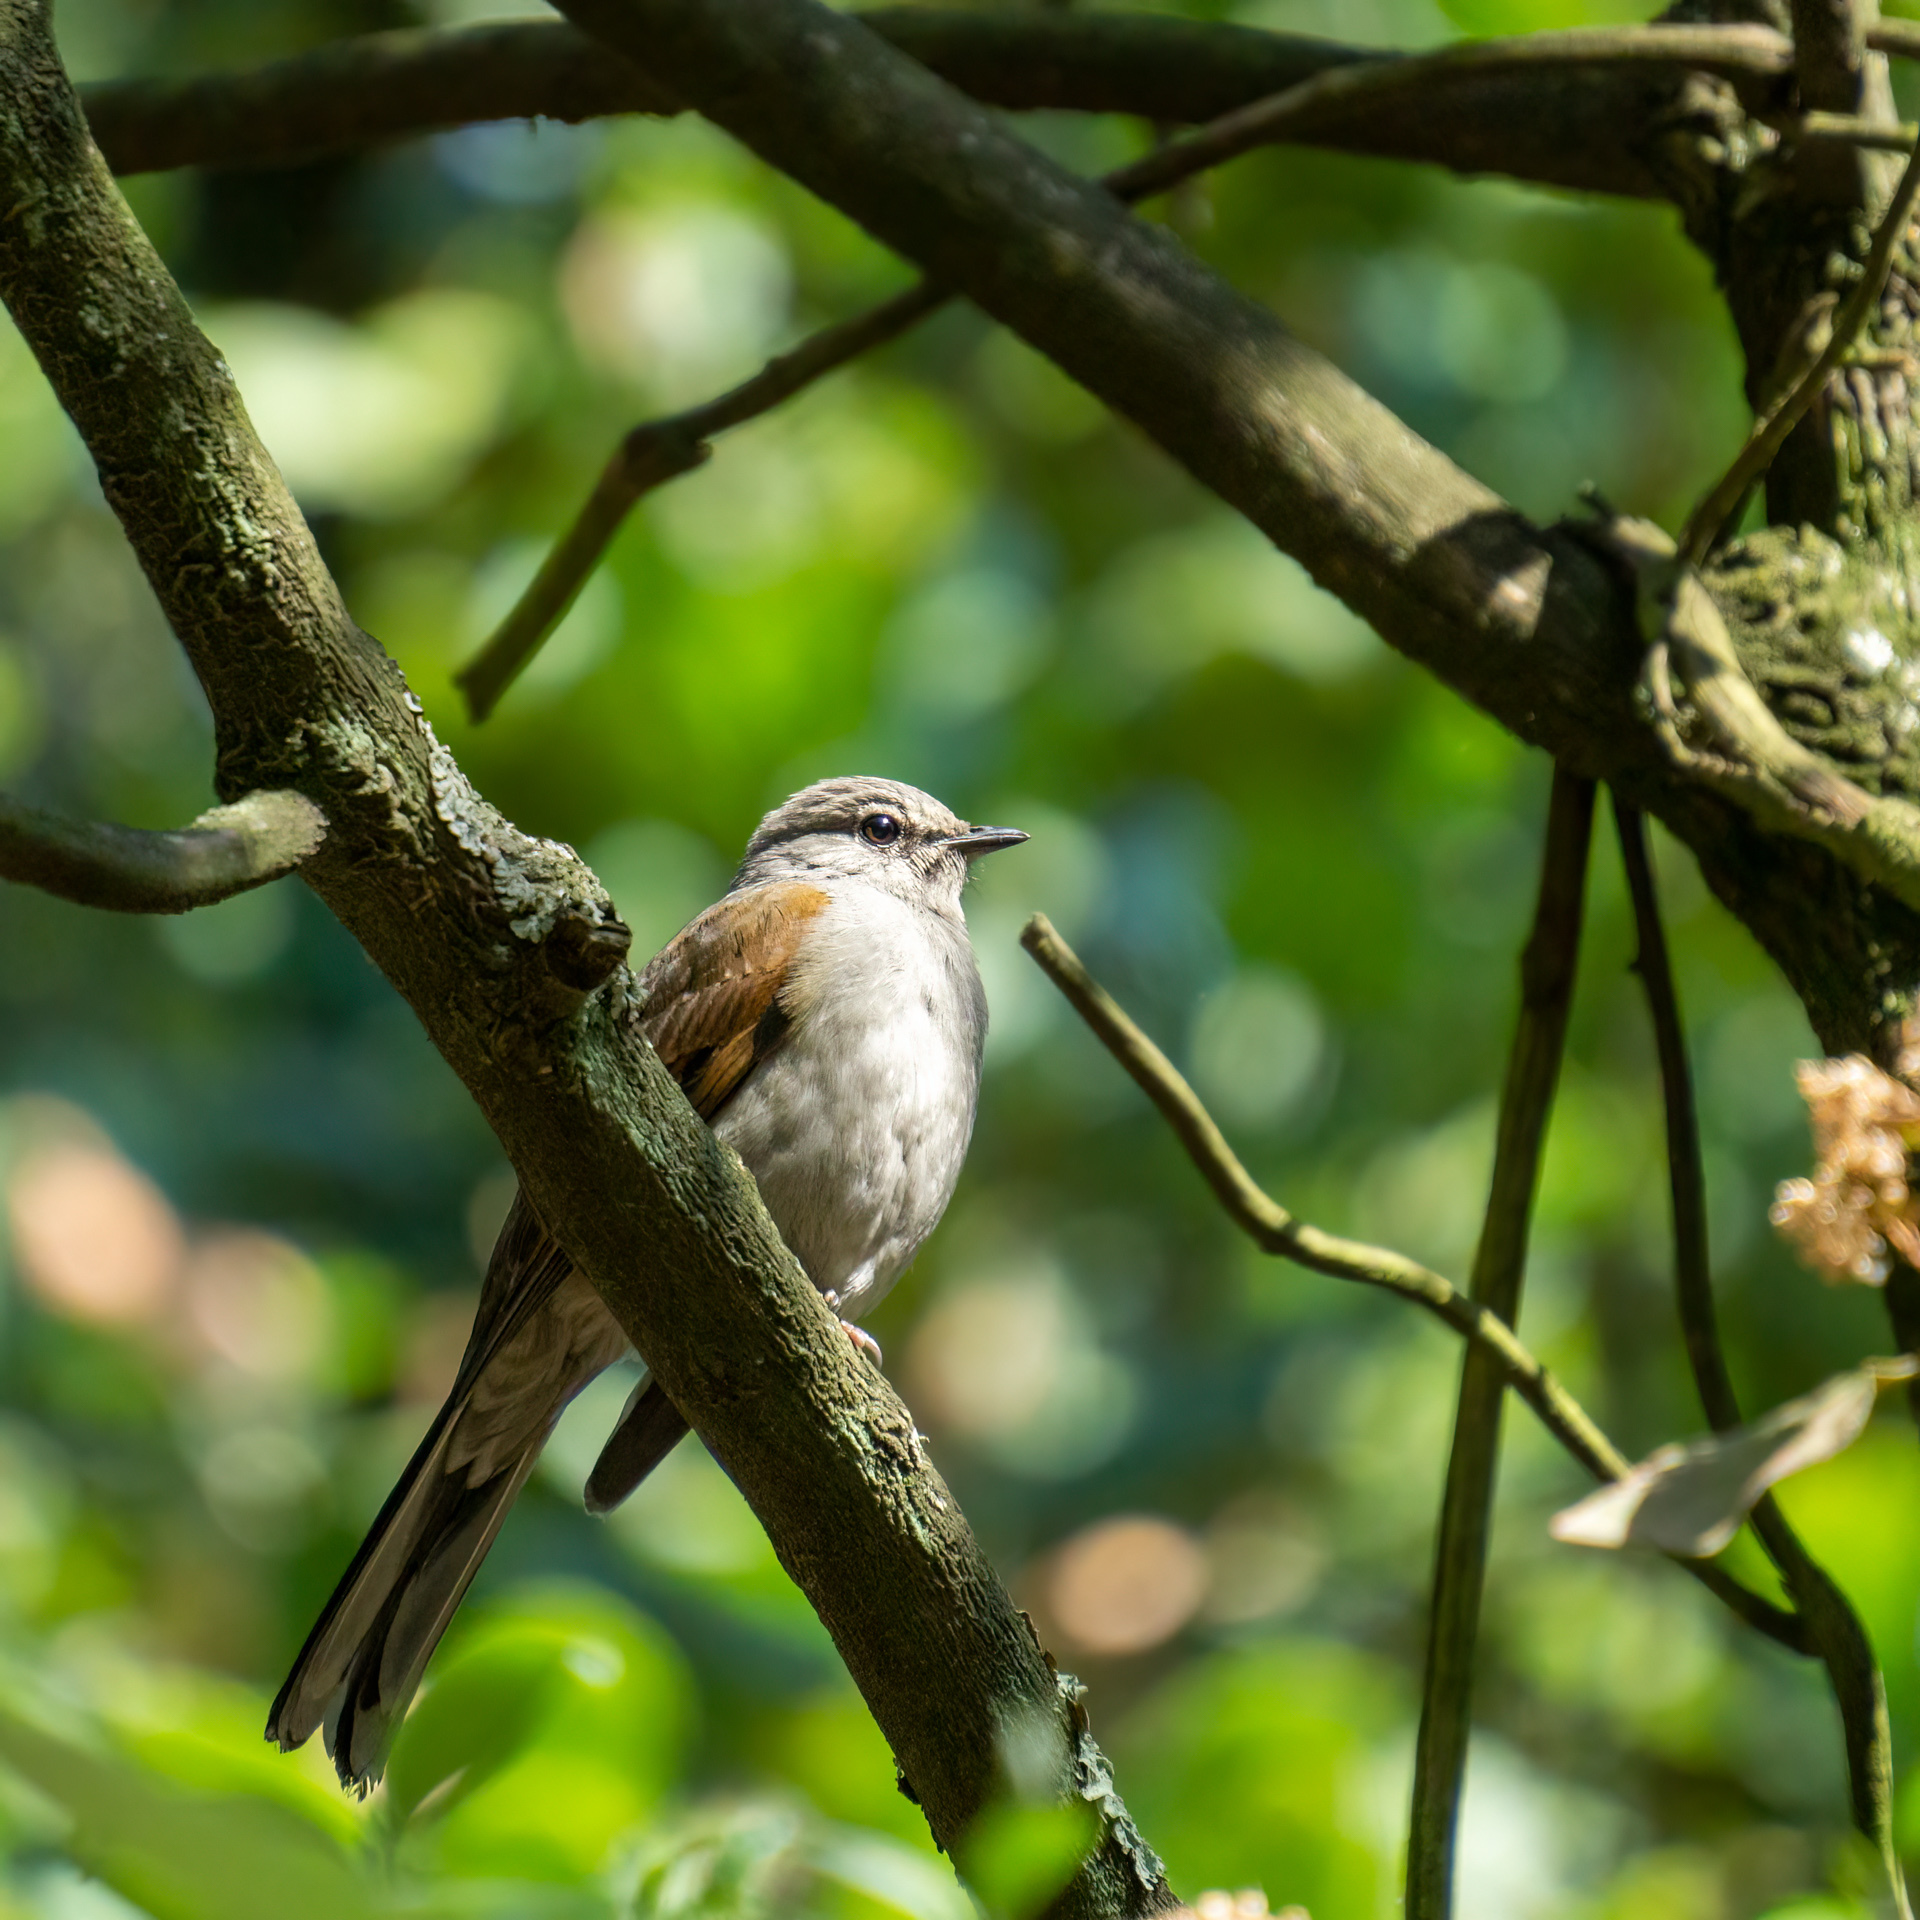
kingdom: Animalia
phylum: Chordata
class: Aves
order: Passeriformes
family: Turdidae
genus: Myadestes
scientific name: Myadestes occidentalis
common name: Brown-backed solitaire
